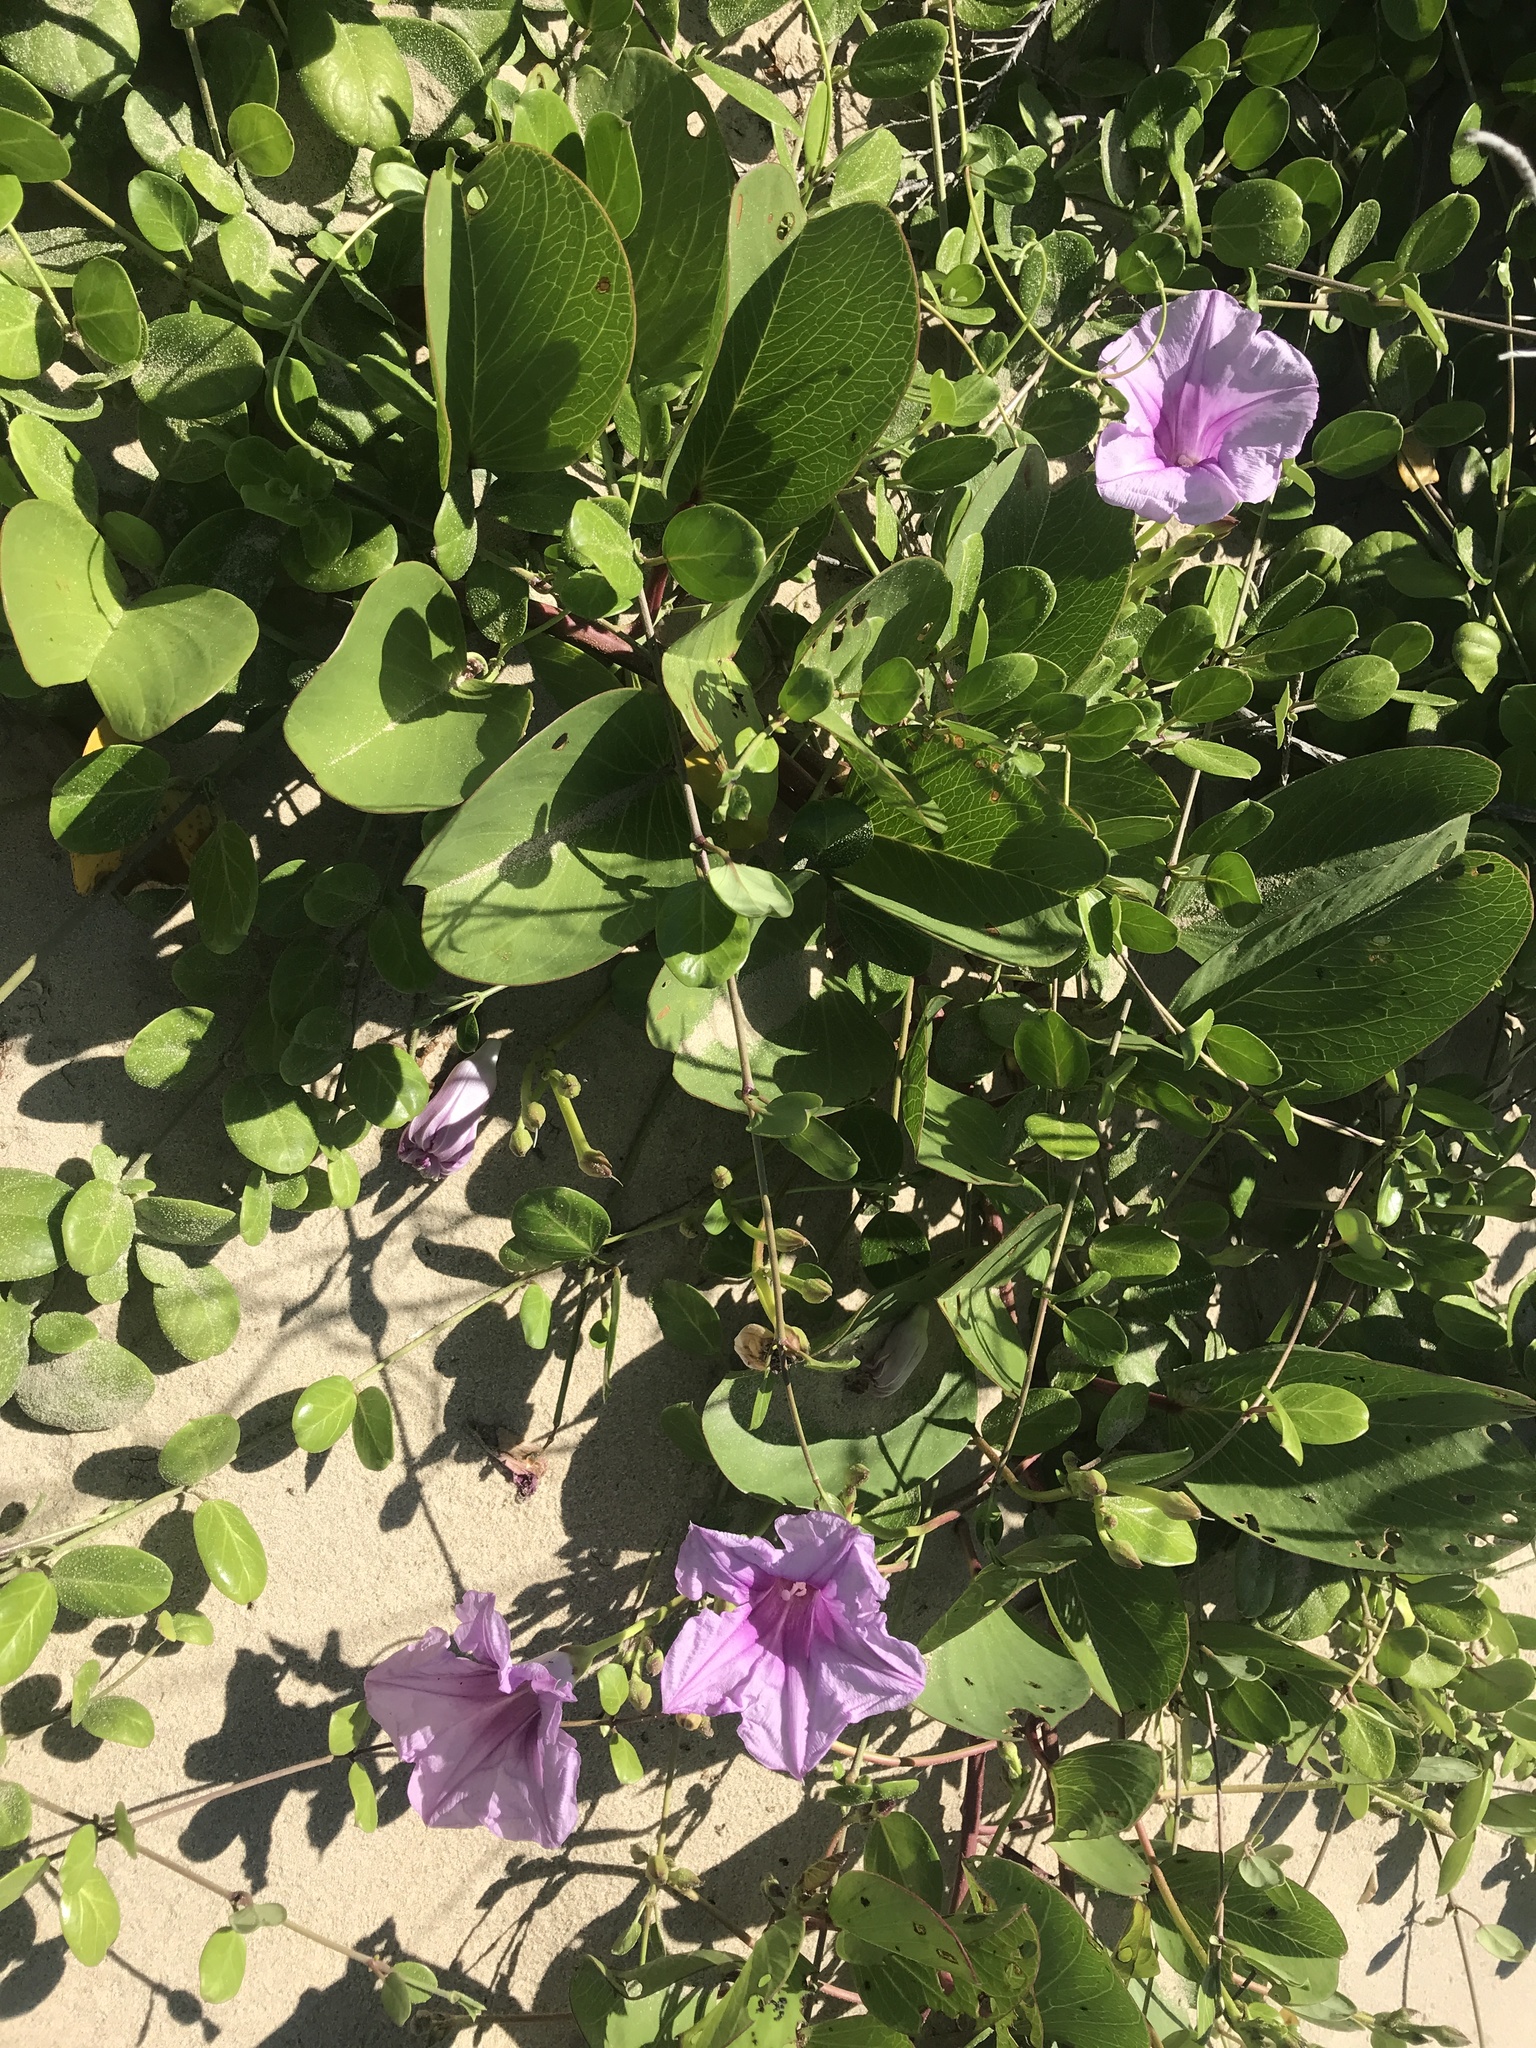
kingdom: Plantae
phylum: Tracheophyta
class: Magnoliopsida
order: Solanales
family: Convolvulaceae
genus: Ipomoea
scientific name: Ipomoea pes-caprae
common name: Beach morning glory
